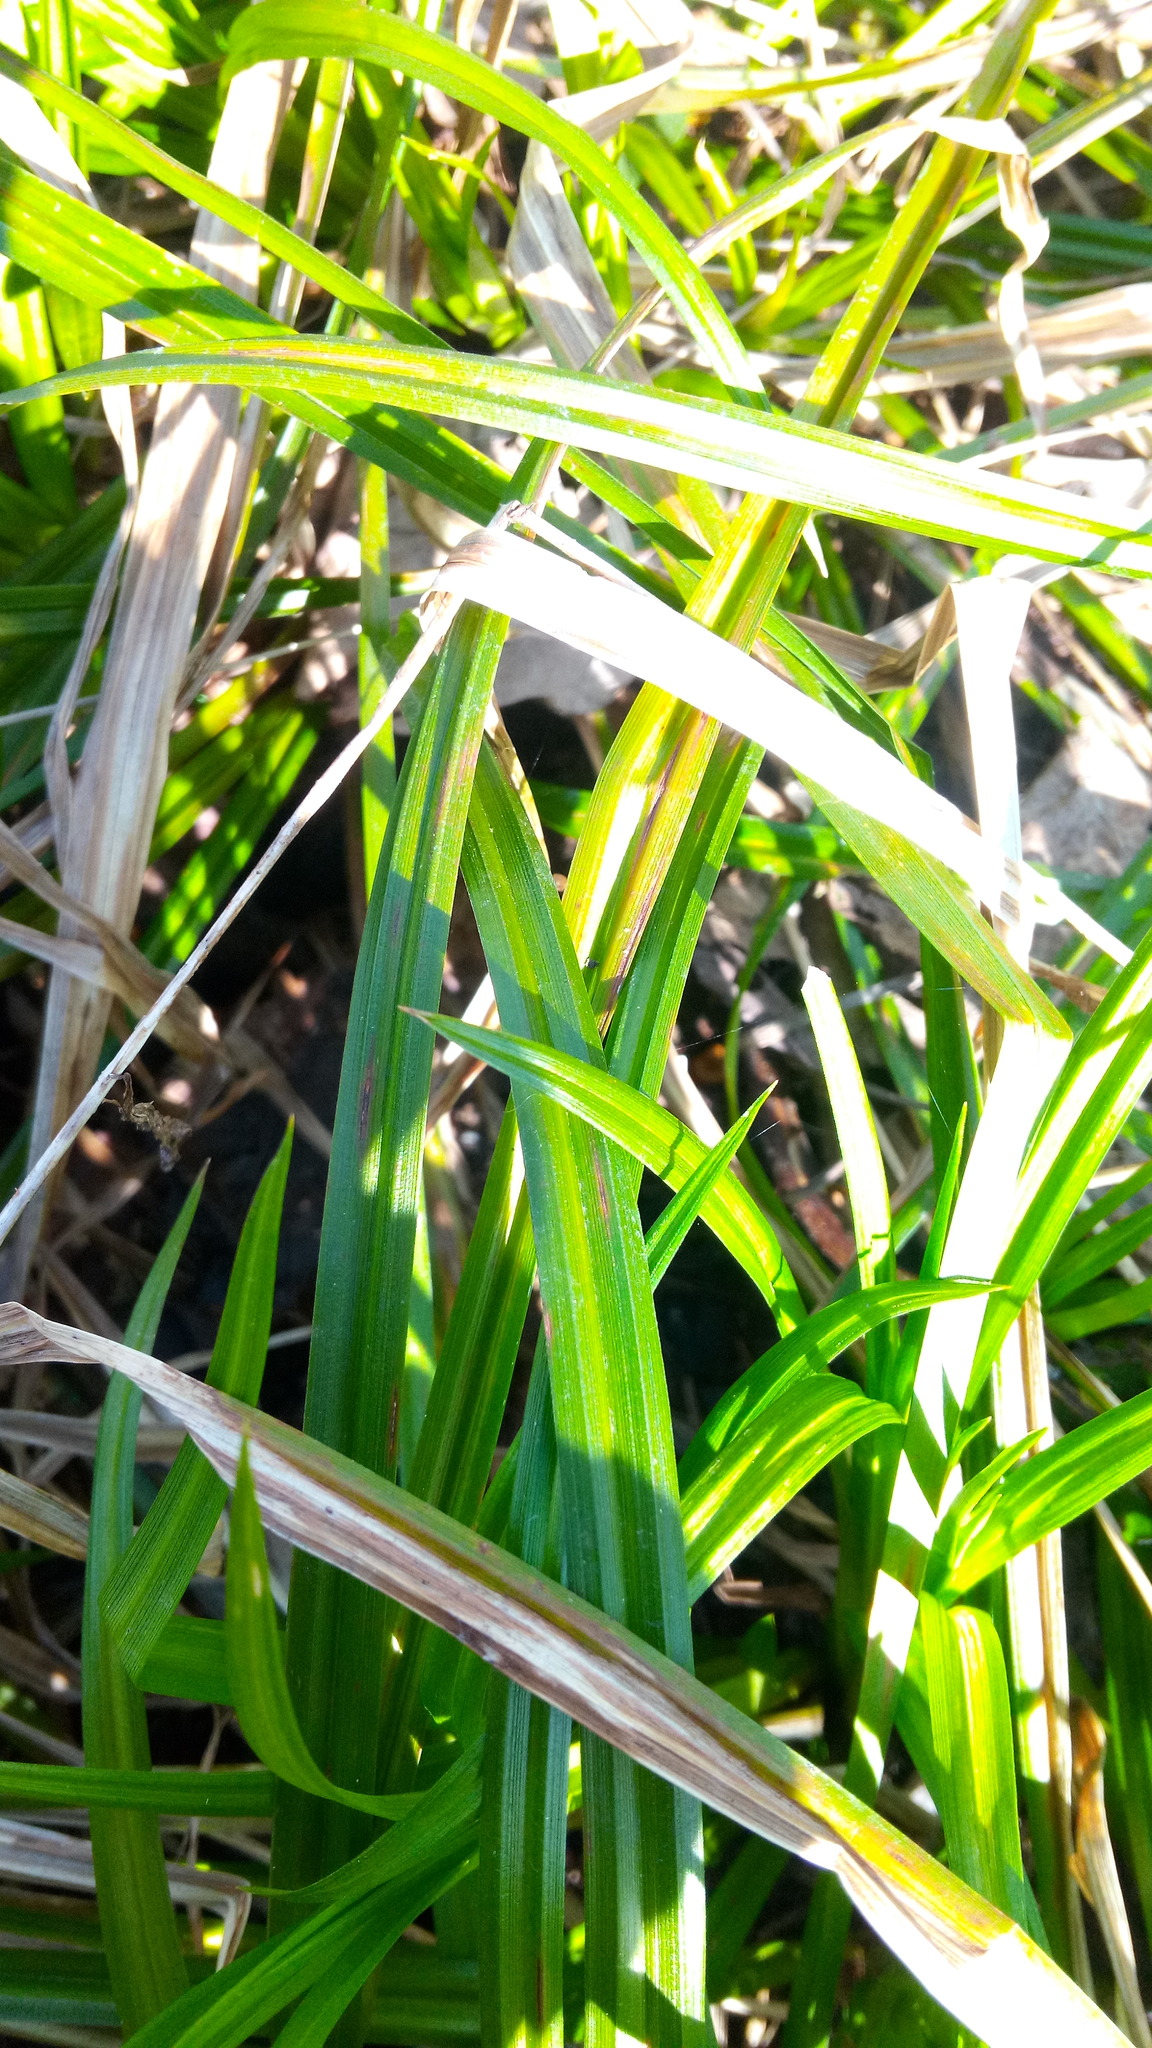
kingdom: Plantae
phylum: Tracheophyta
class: Liliopsida
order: Poales
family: Cyperaceae
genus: Carex
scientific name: Carex sylvatica
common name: Wood-sedge
